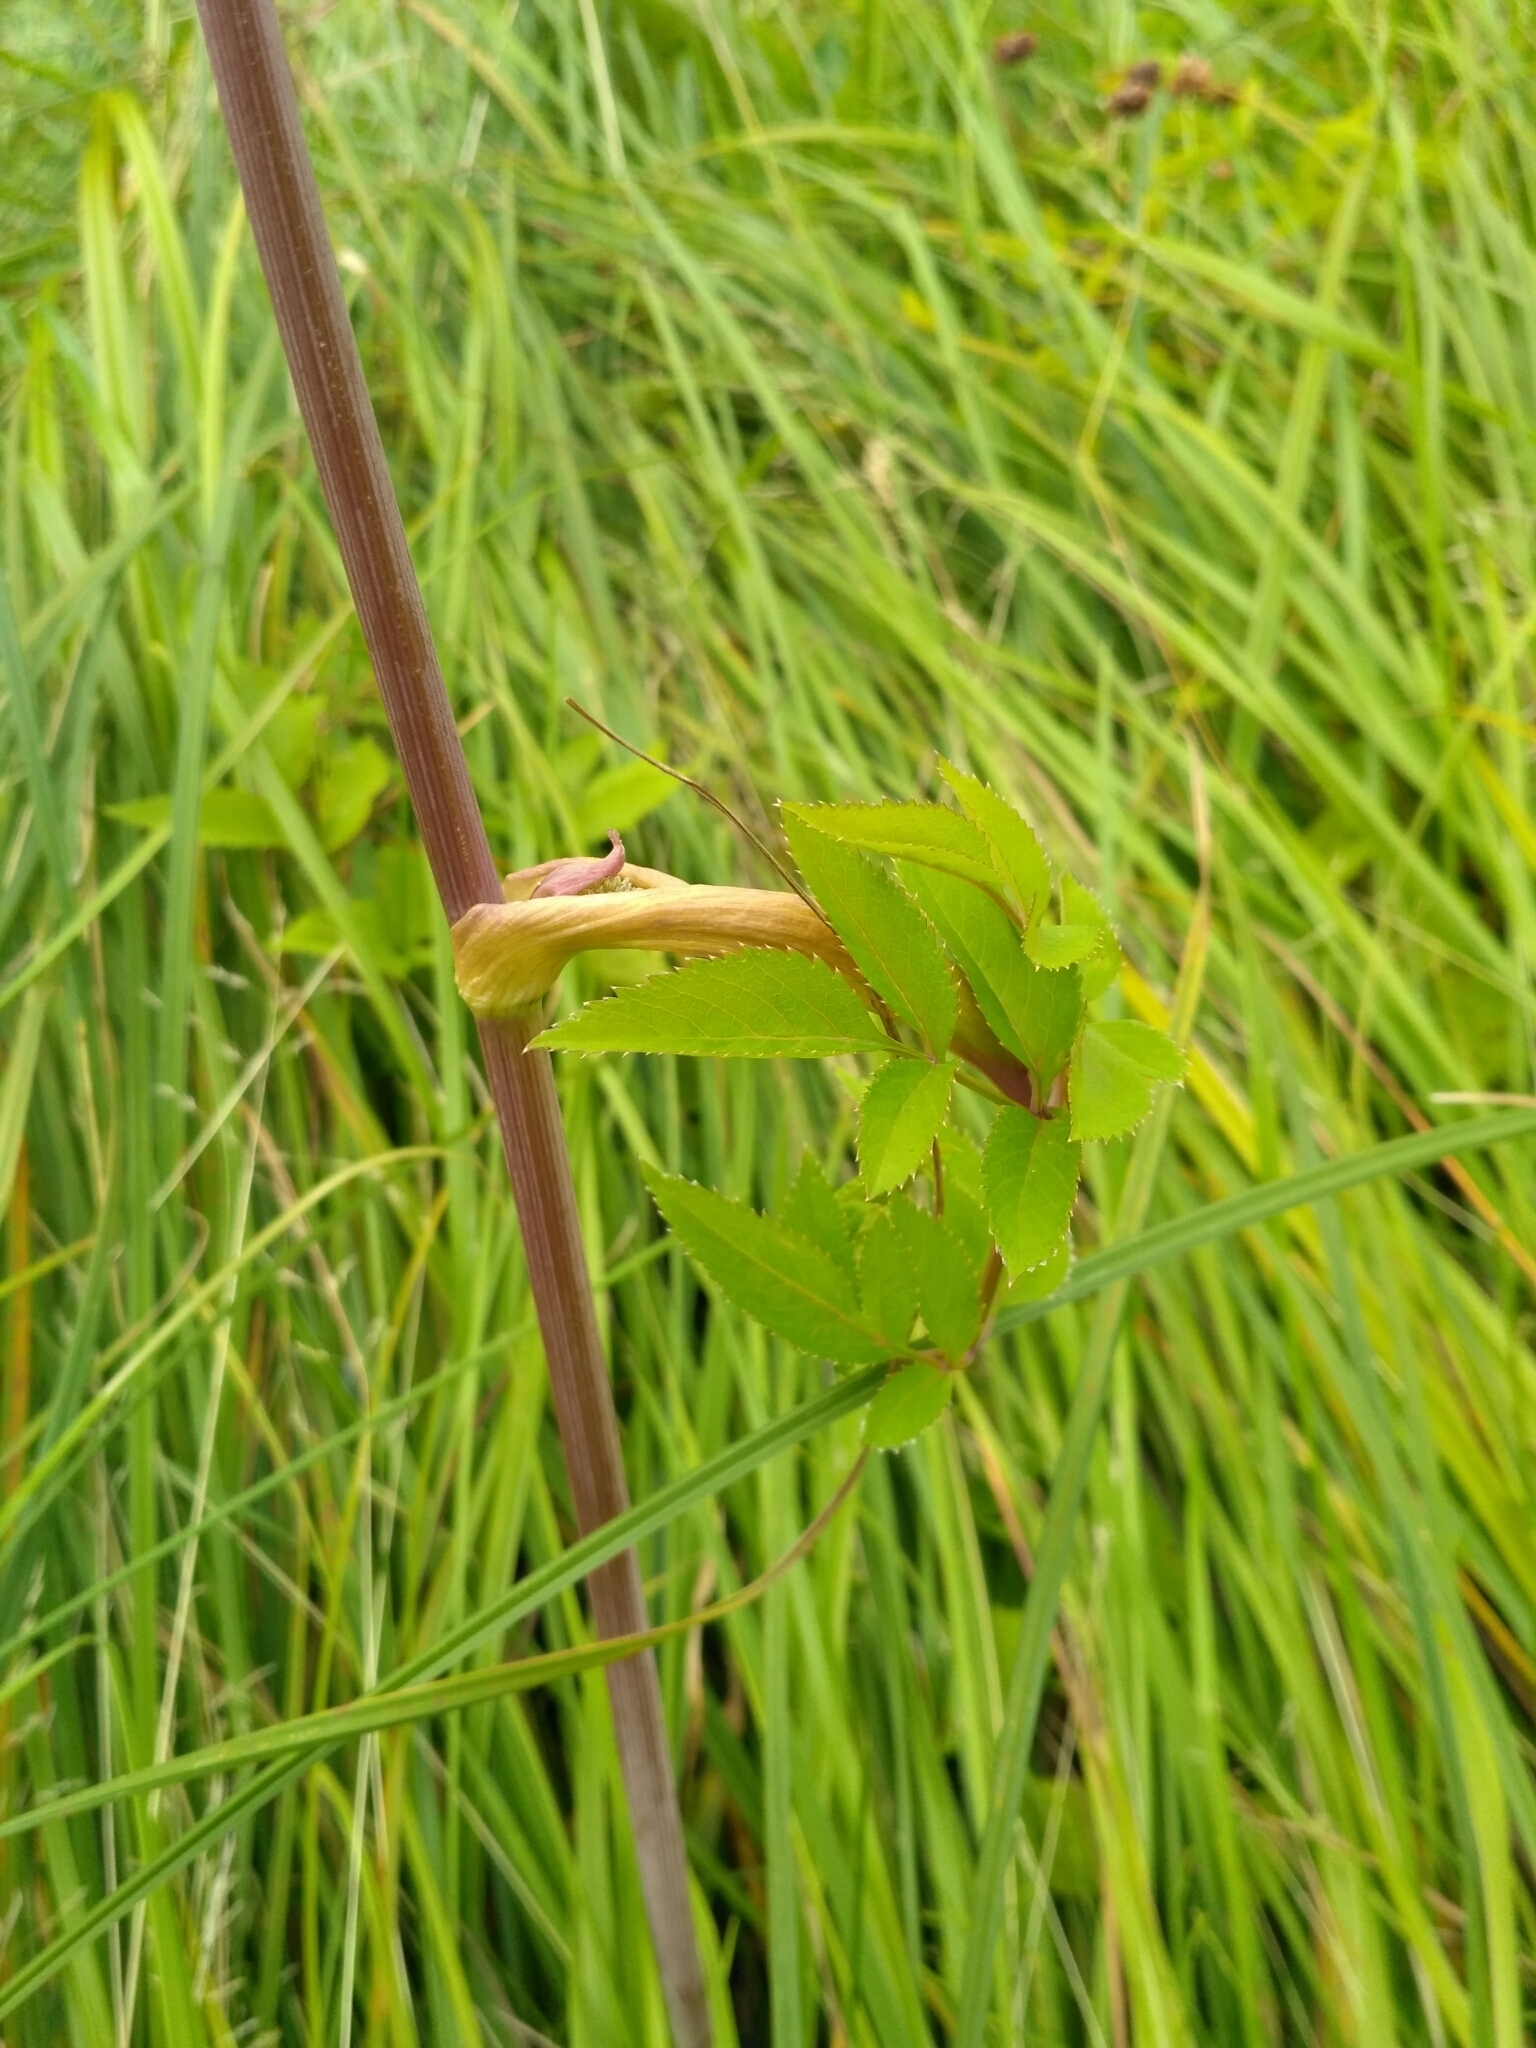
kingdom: Plantae
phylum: Tracheophyta
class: Magnoliopsida
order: Apiales
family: Apiaceae
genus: Angelica
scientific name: Angelica sylvestris
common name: Wild angelica
